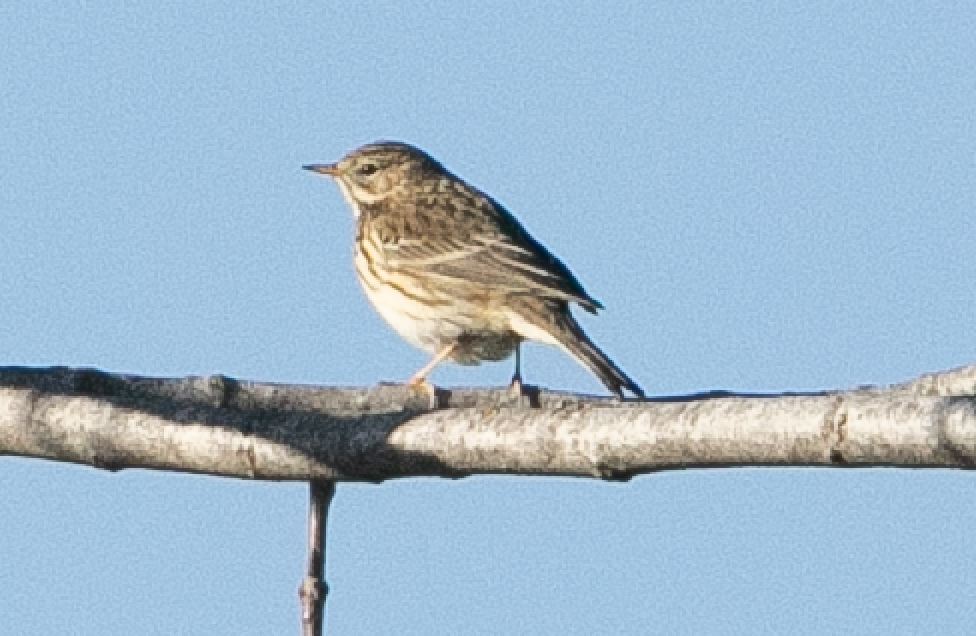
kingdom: Animalia
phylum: Chordata
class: Aves
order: Passeriformes
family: Motacillidae
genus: Anthus
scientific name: Anthus pratensis
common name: Meadow pipit
